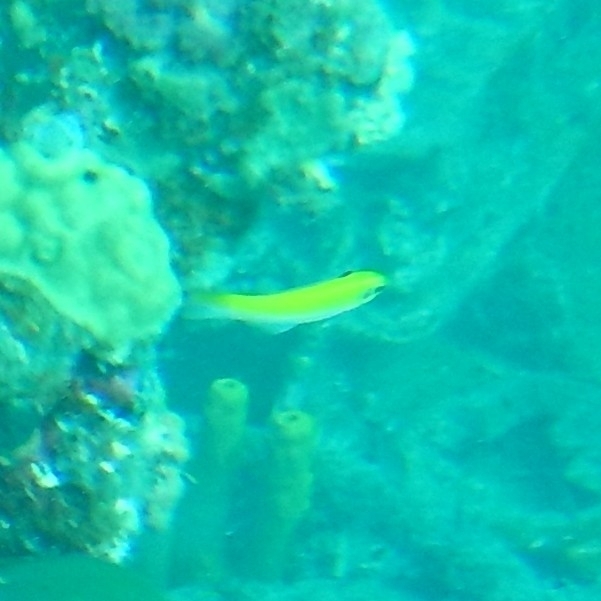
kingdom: Animalia
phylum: Chordata
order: Perciformes
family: Labridae
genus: Thalassoma
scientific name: Thalassoma bifasciatum
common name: Bluehead wrasse
